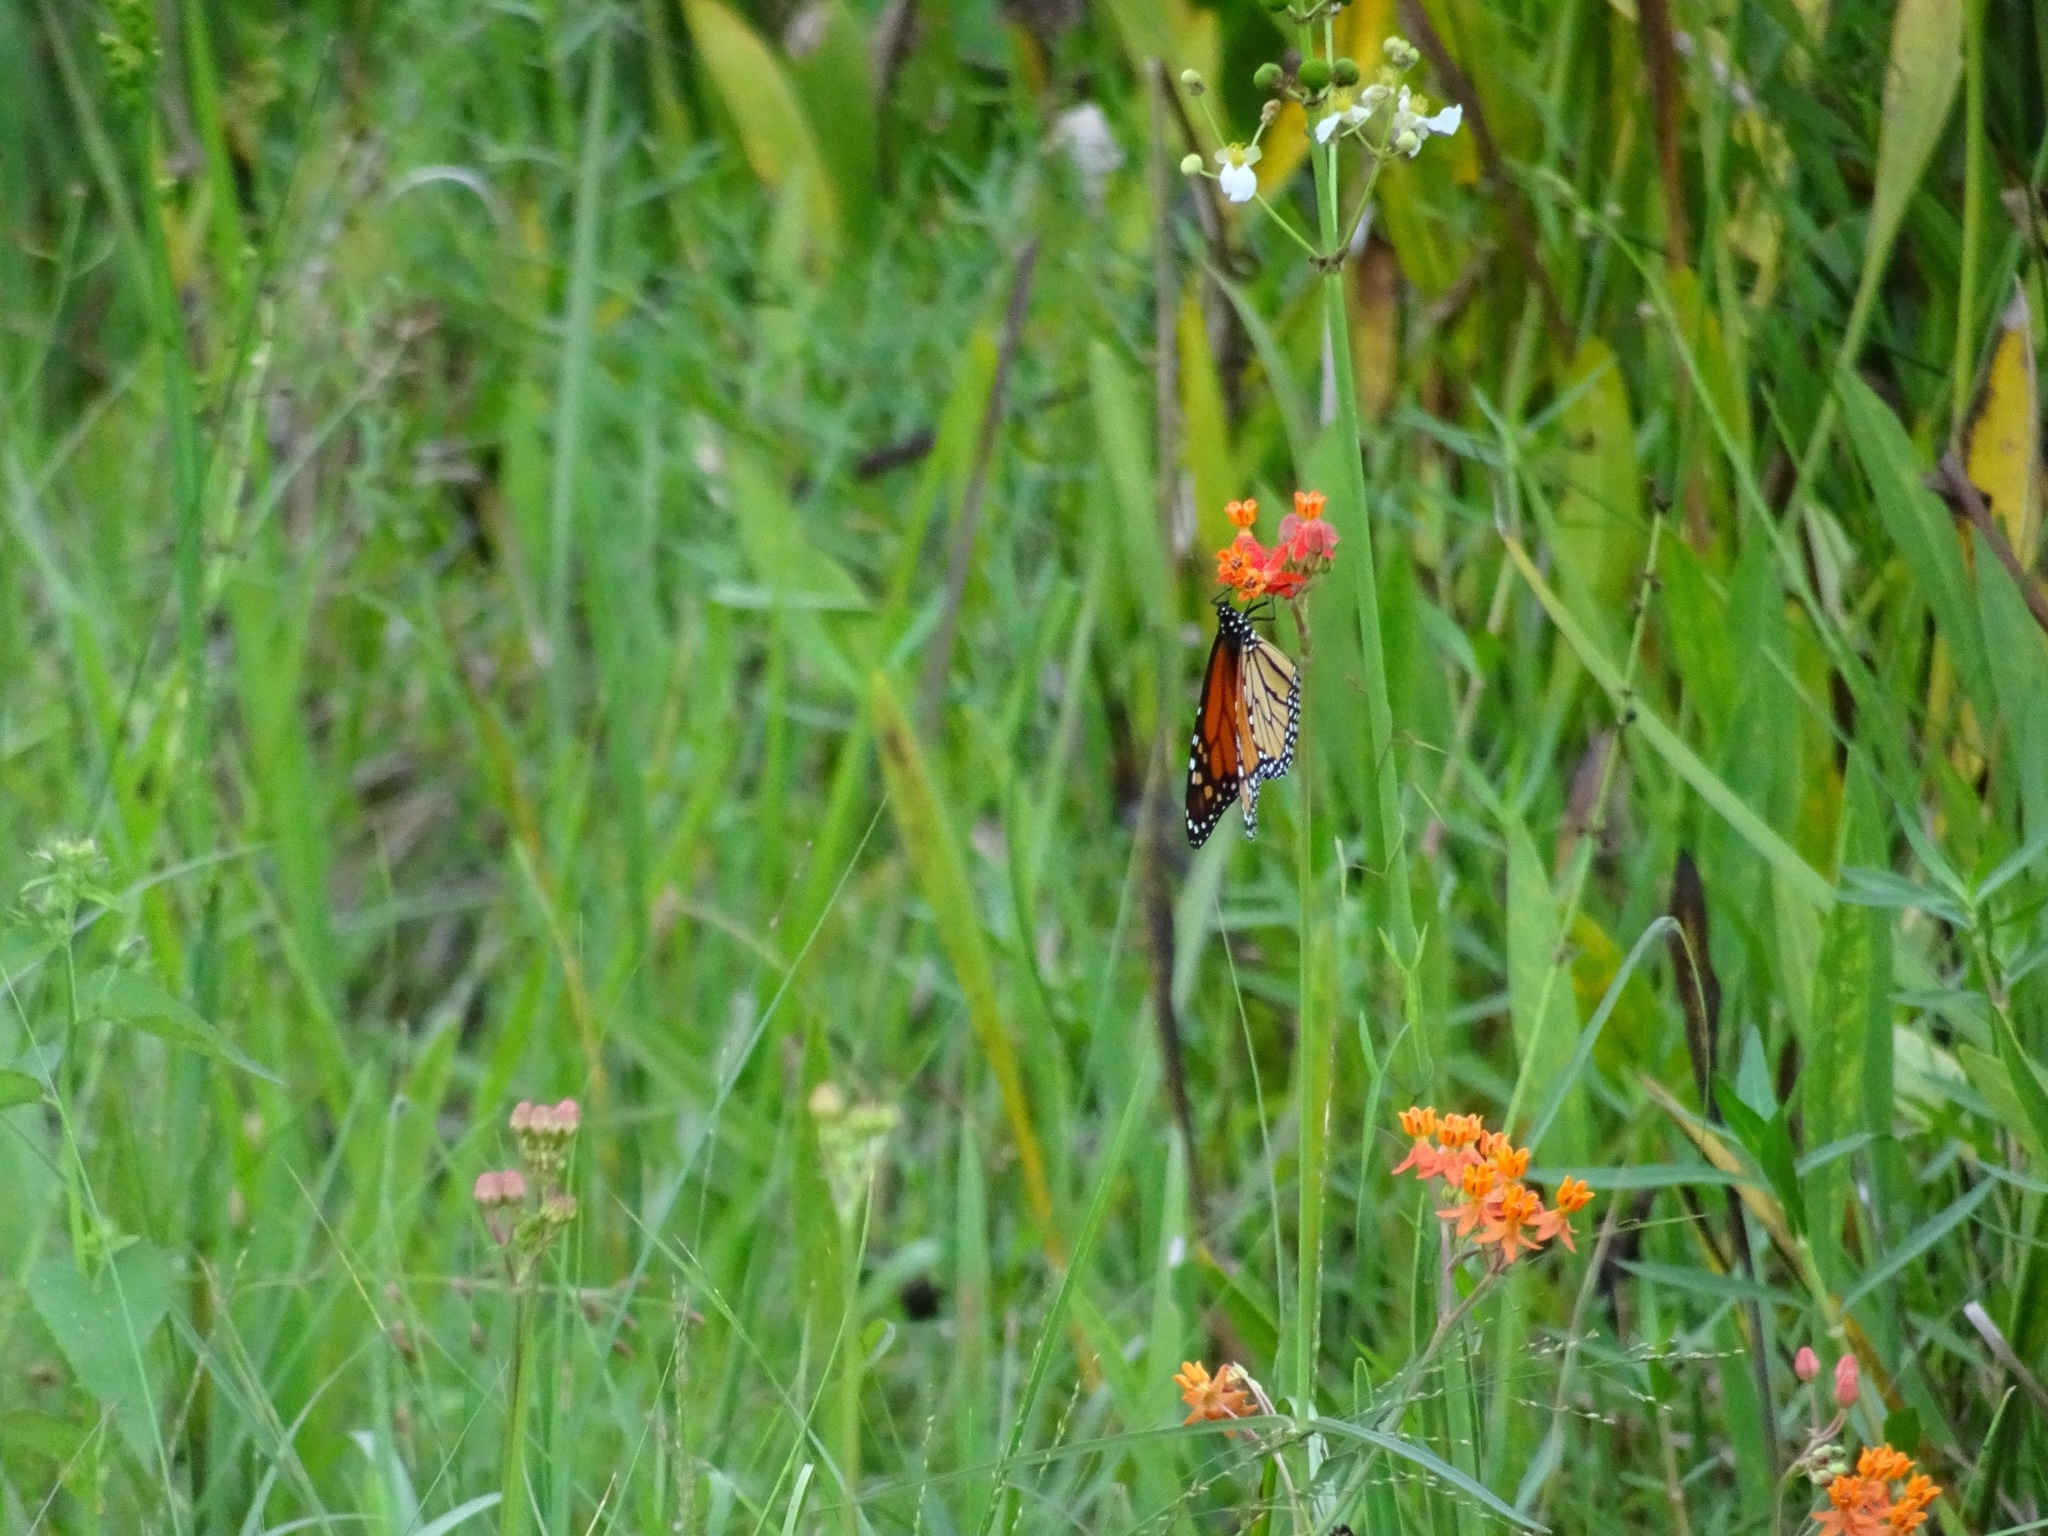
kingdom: Animalia
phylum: Arthropoda
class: Insecta
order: Lepidoptera
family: Nymphalidae
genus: Danaus
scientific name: Danaus plexippus
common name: Monarch
